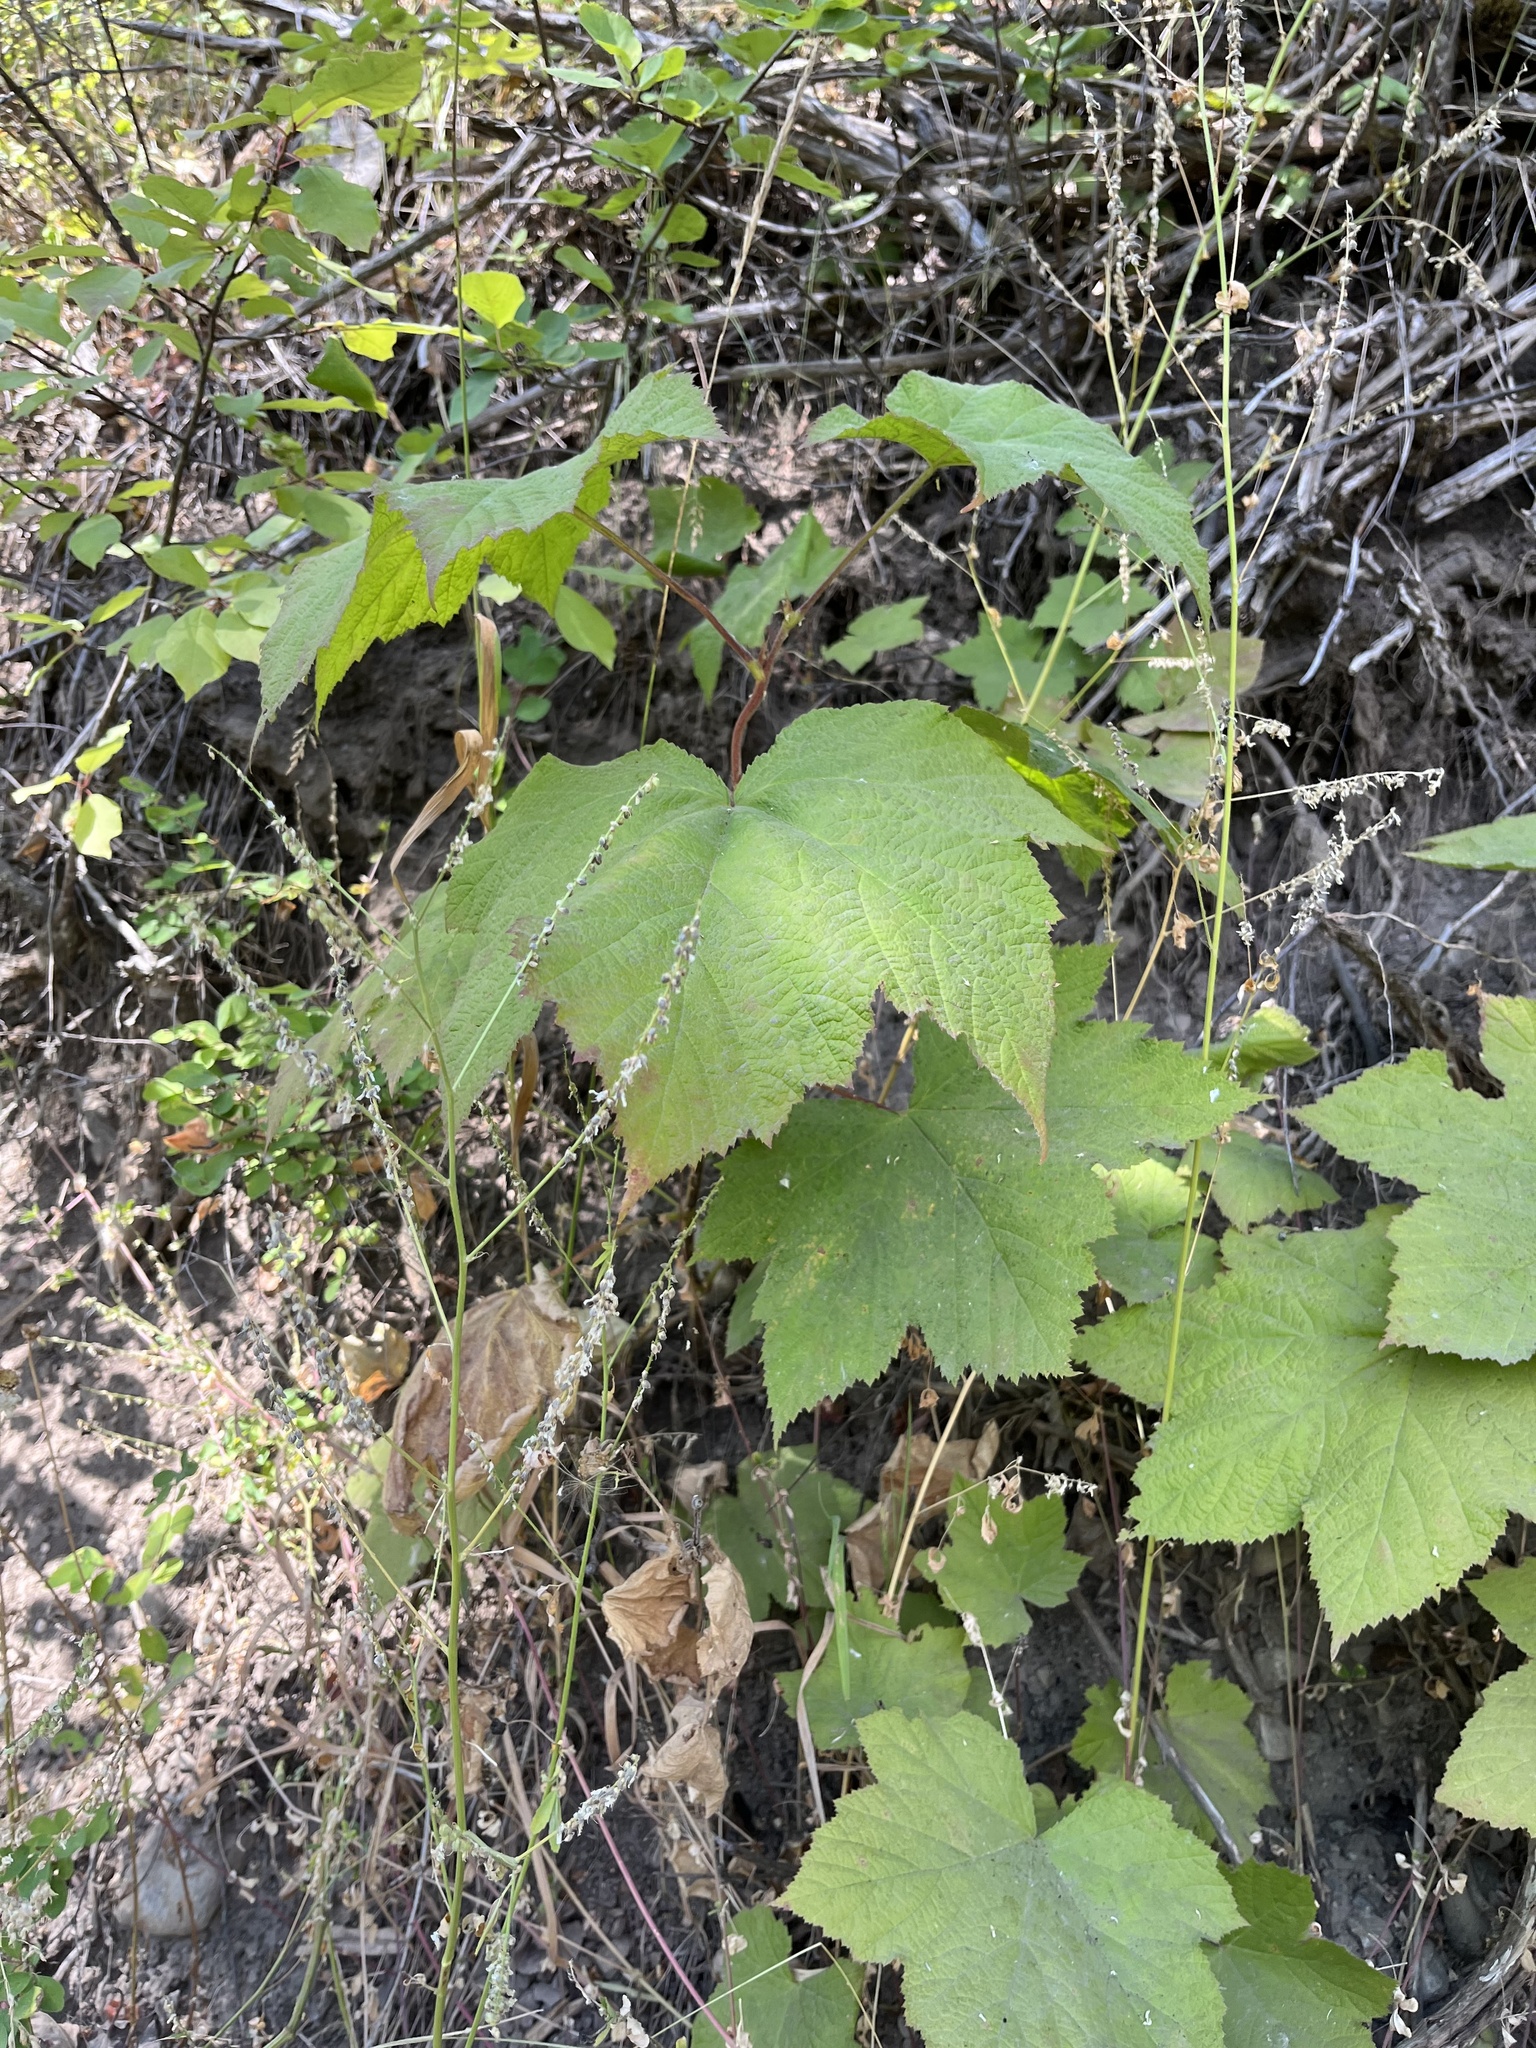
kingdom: Plantae
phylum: Tracheophyta
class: Magnoliopsida
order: Rosales
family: Rosaceae
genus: Rubus
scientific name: Rubus parviflorus
